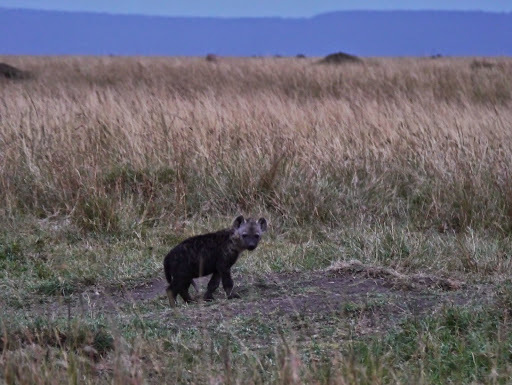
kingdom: Animalia
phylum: Chordata
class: Mammalia
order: Carnivora
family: Hyaenidae
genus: Crocuta
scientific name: Crocuta crocuta
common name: Spotted hyaena
